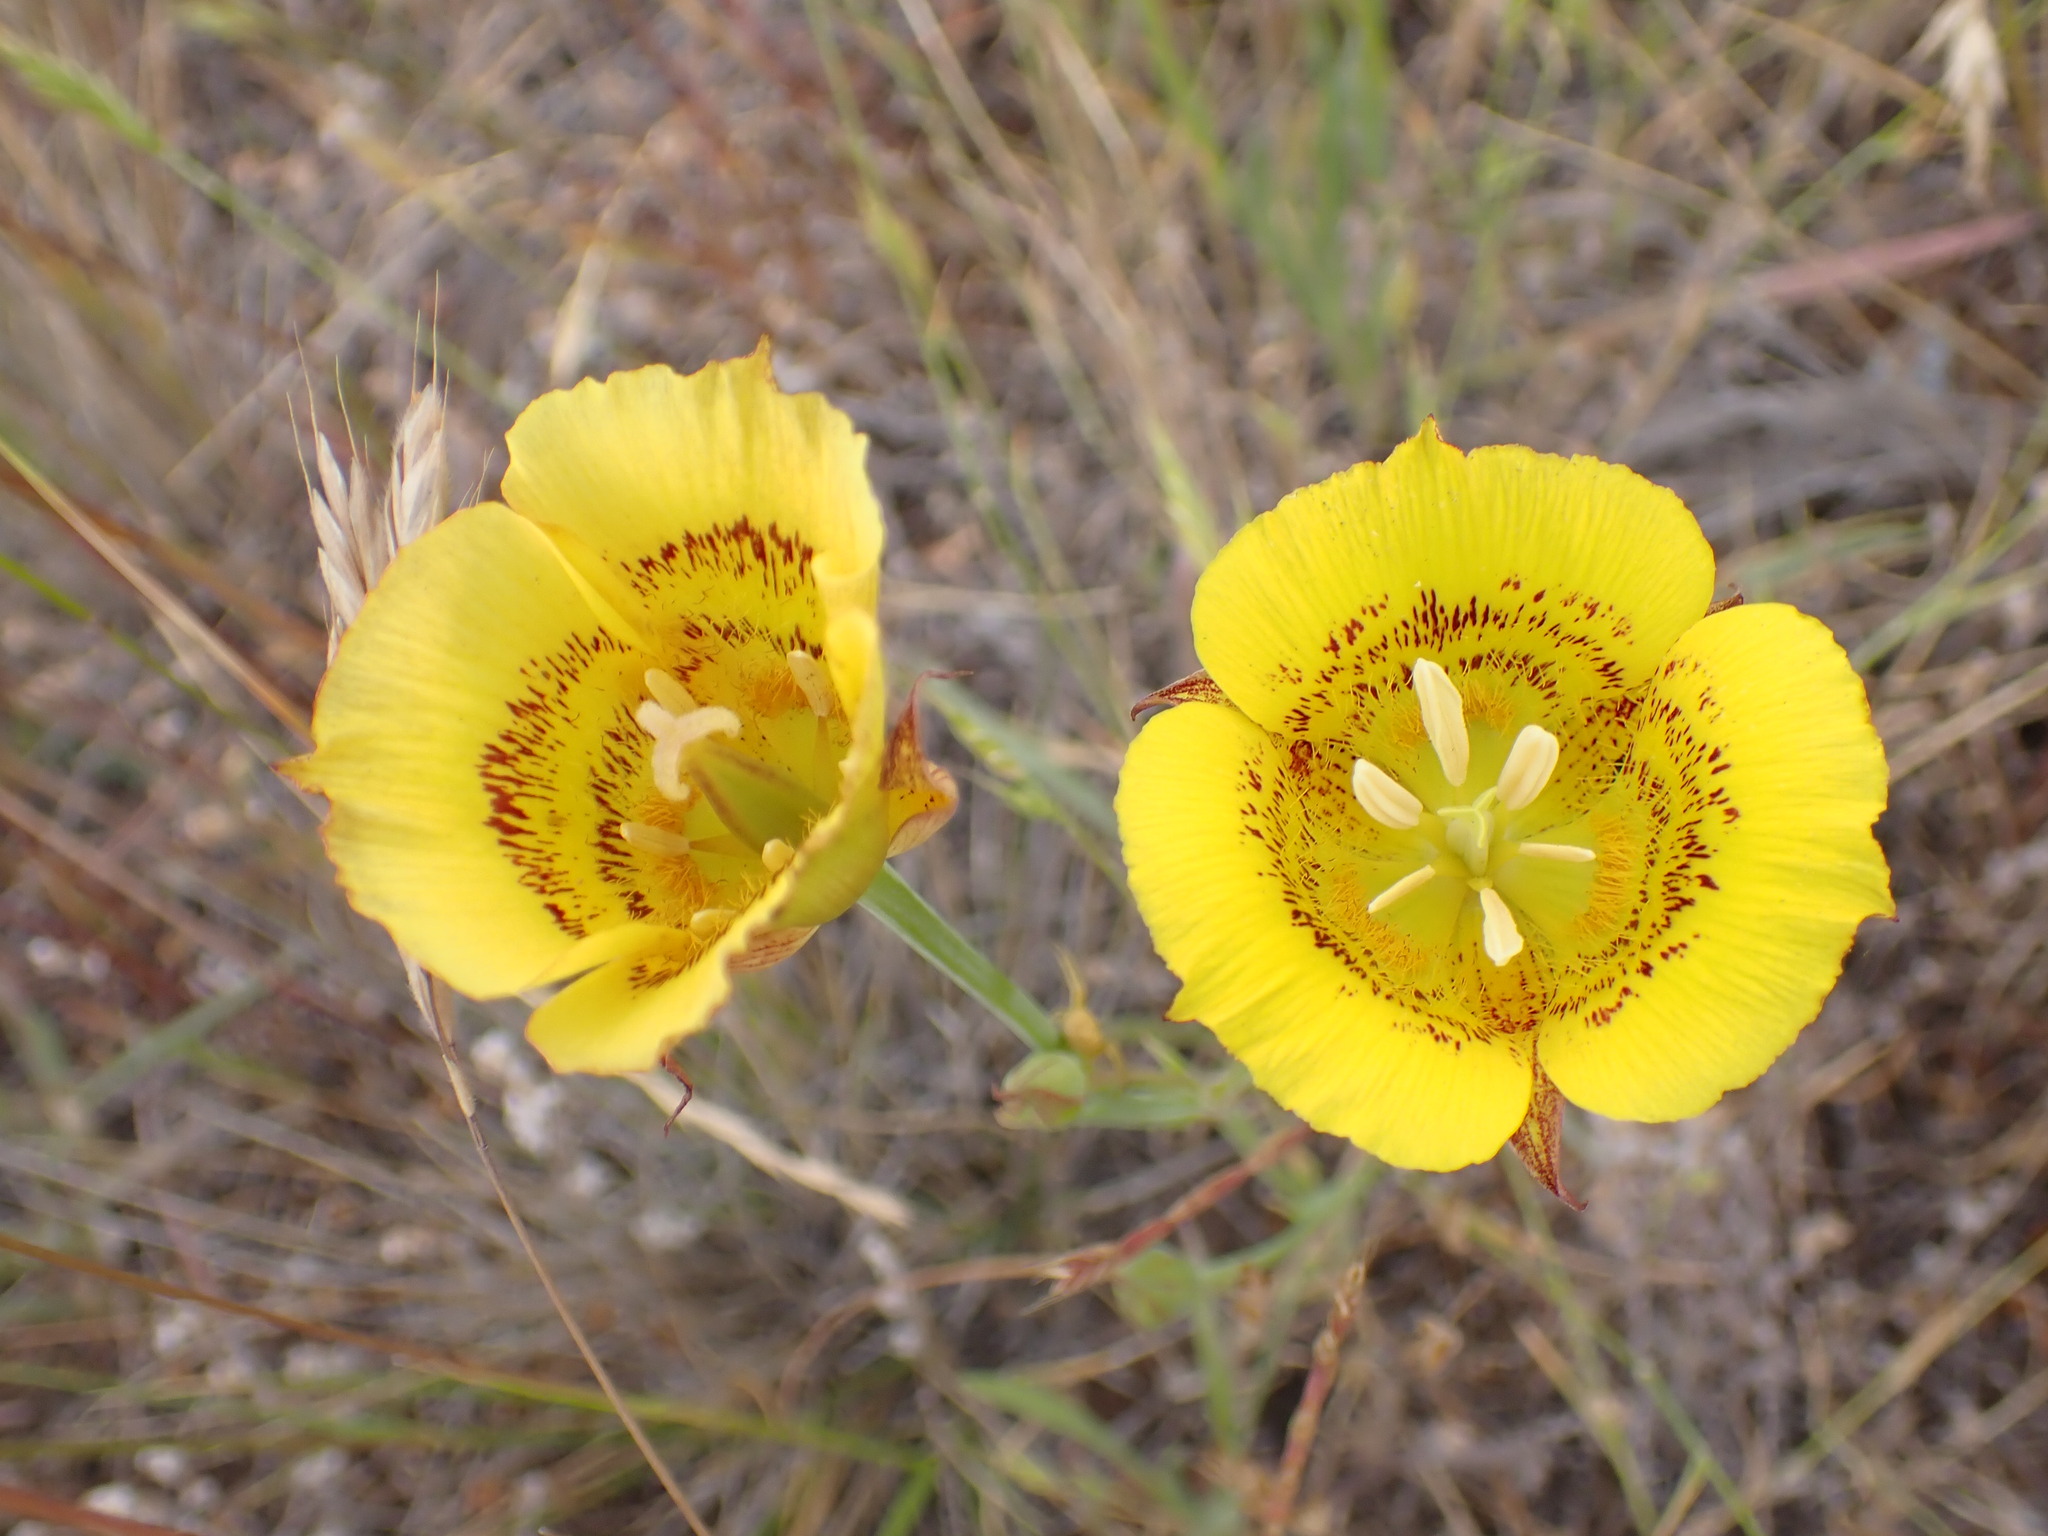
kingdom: Plantae
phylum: Tracheophyta
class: Liliopsida
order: Liliales
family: Liliaceae
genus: Calochortus
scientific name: Calochortus luteus
